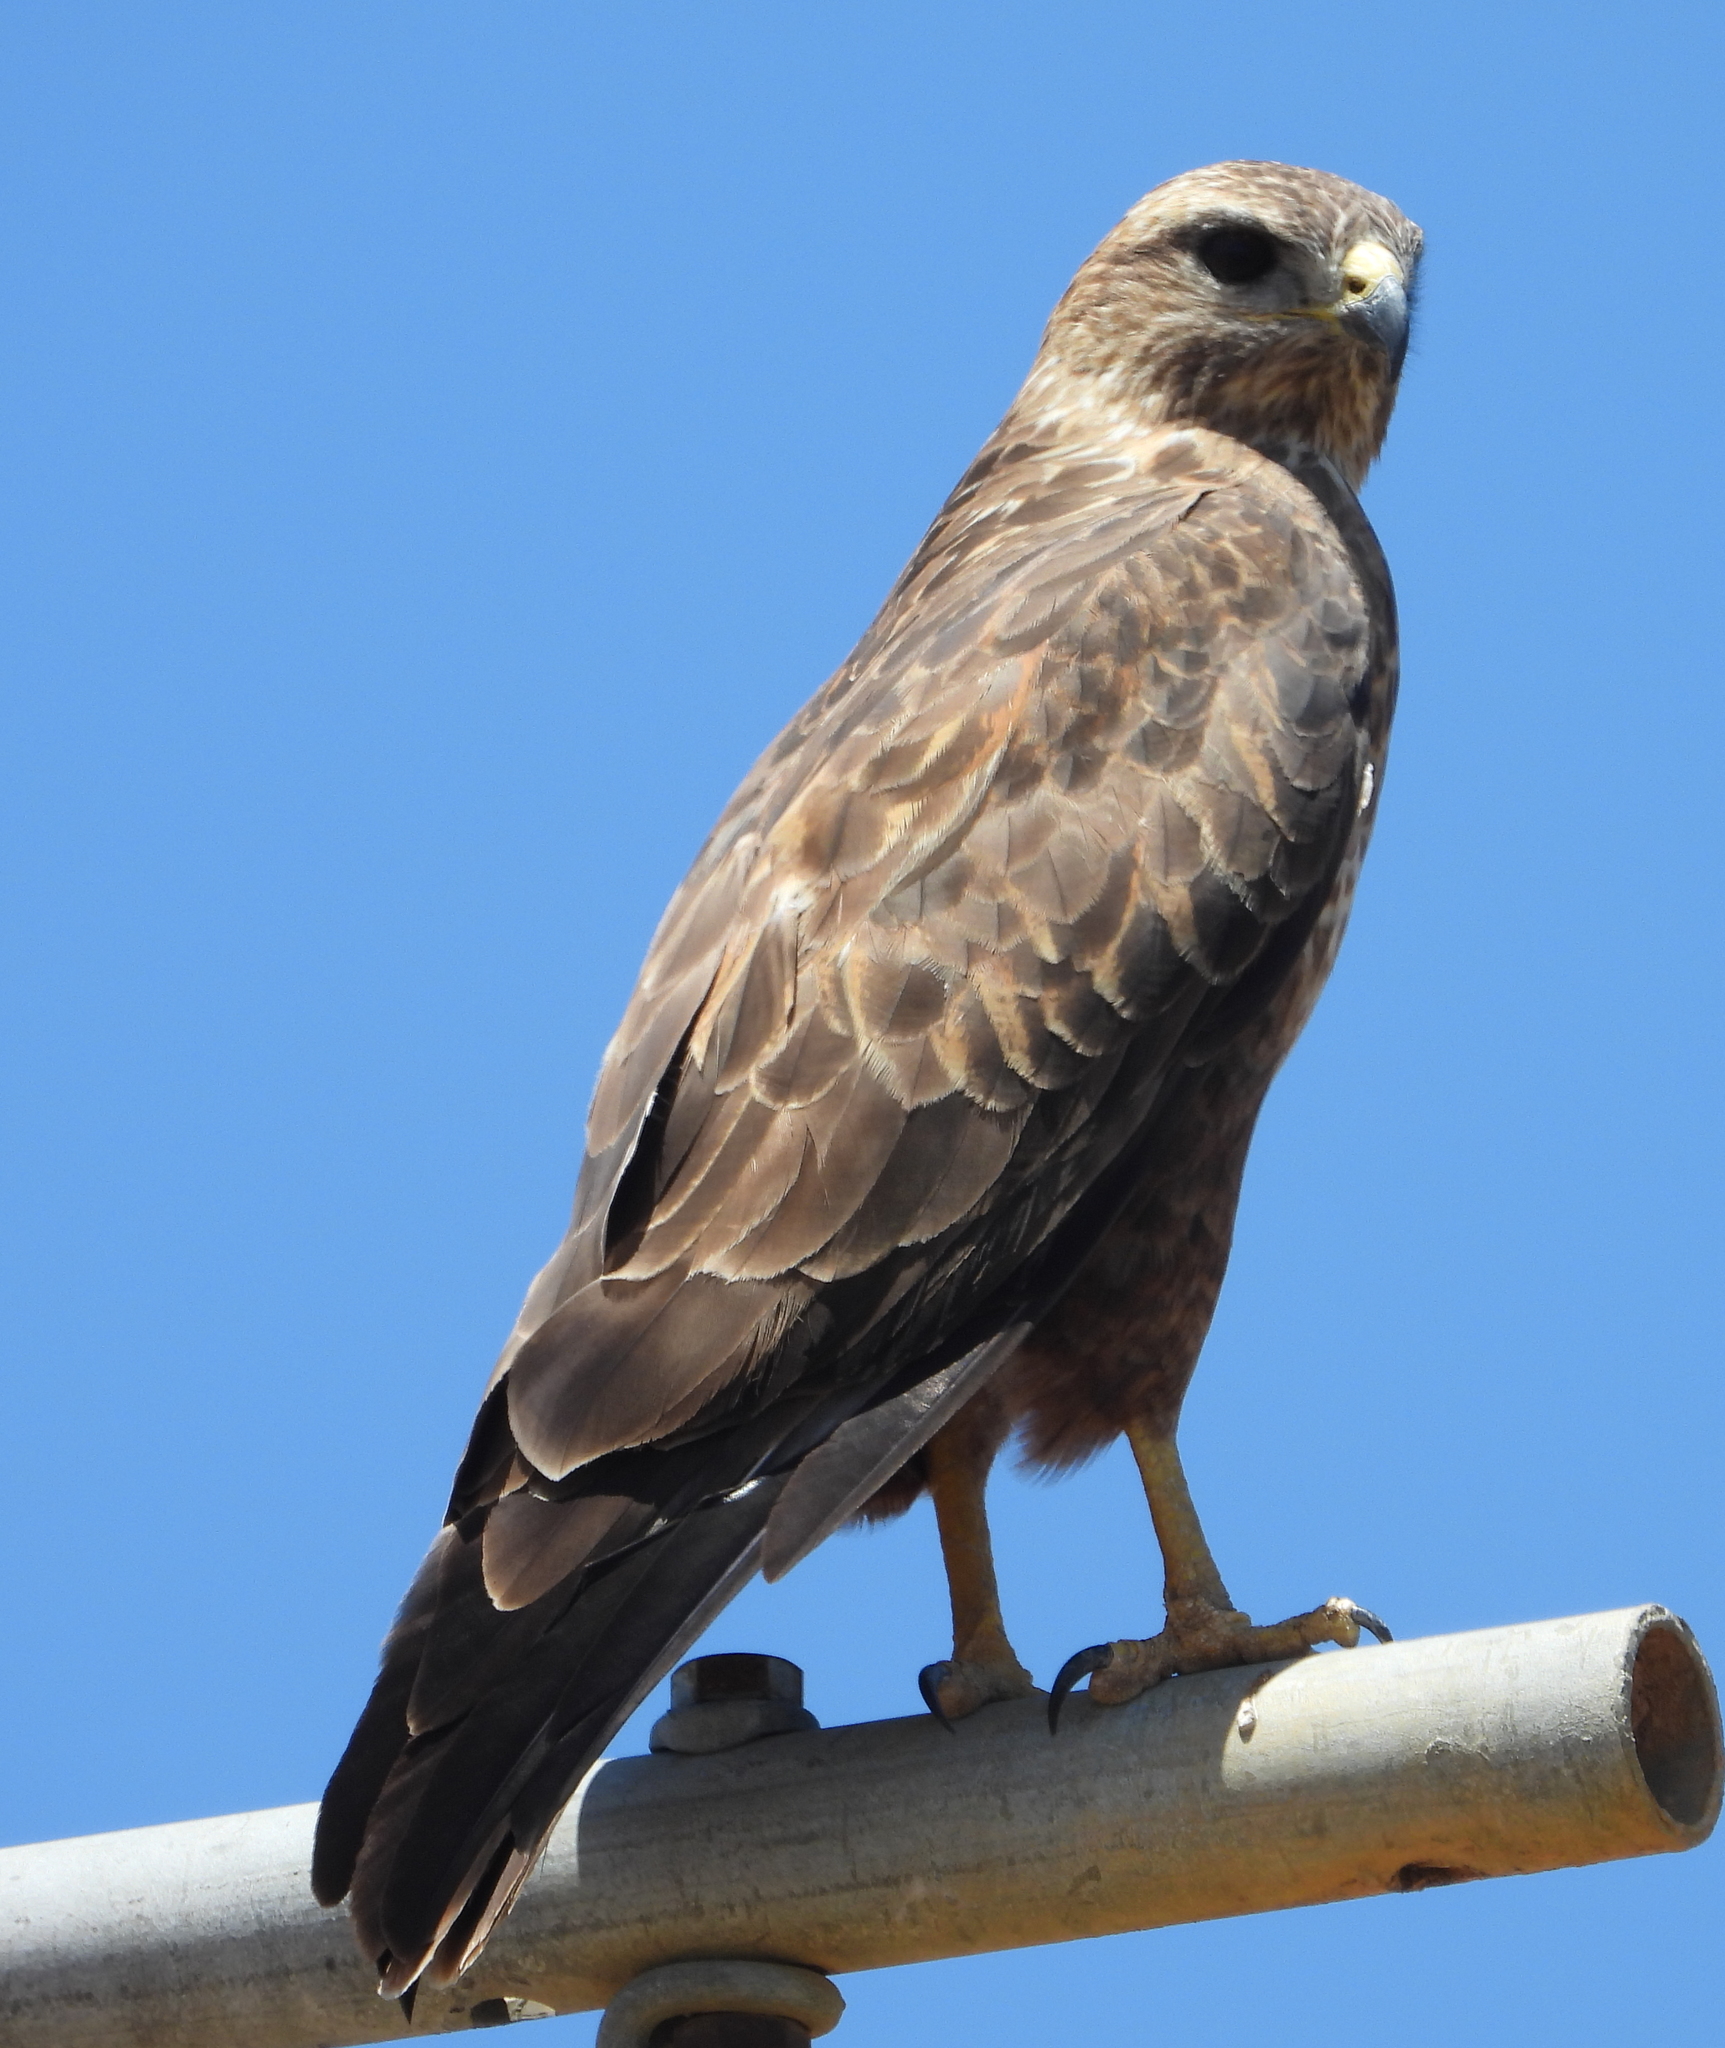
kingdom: Animalia
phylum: Chordata
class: Aves
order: Accipitriformes
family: Accipitridae
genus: Buteo
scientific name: Buteo buteo
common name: Common buzzard
